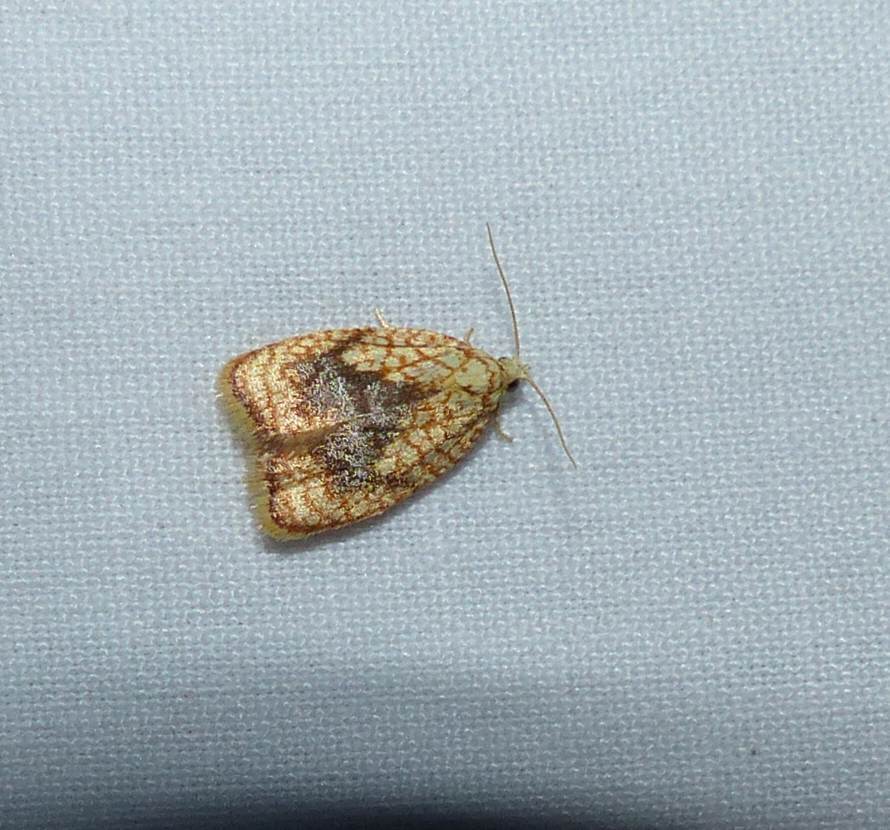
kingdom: Animalia
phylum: Arthropoda
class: Insecta
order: Lepidoptera
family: Tortricidae
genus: Acleris
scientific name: Acleris forsskaleana
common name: Maple button
